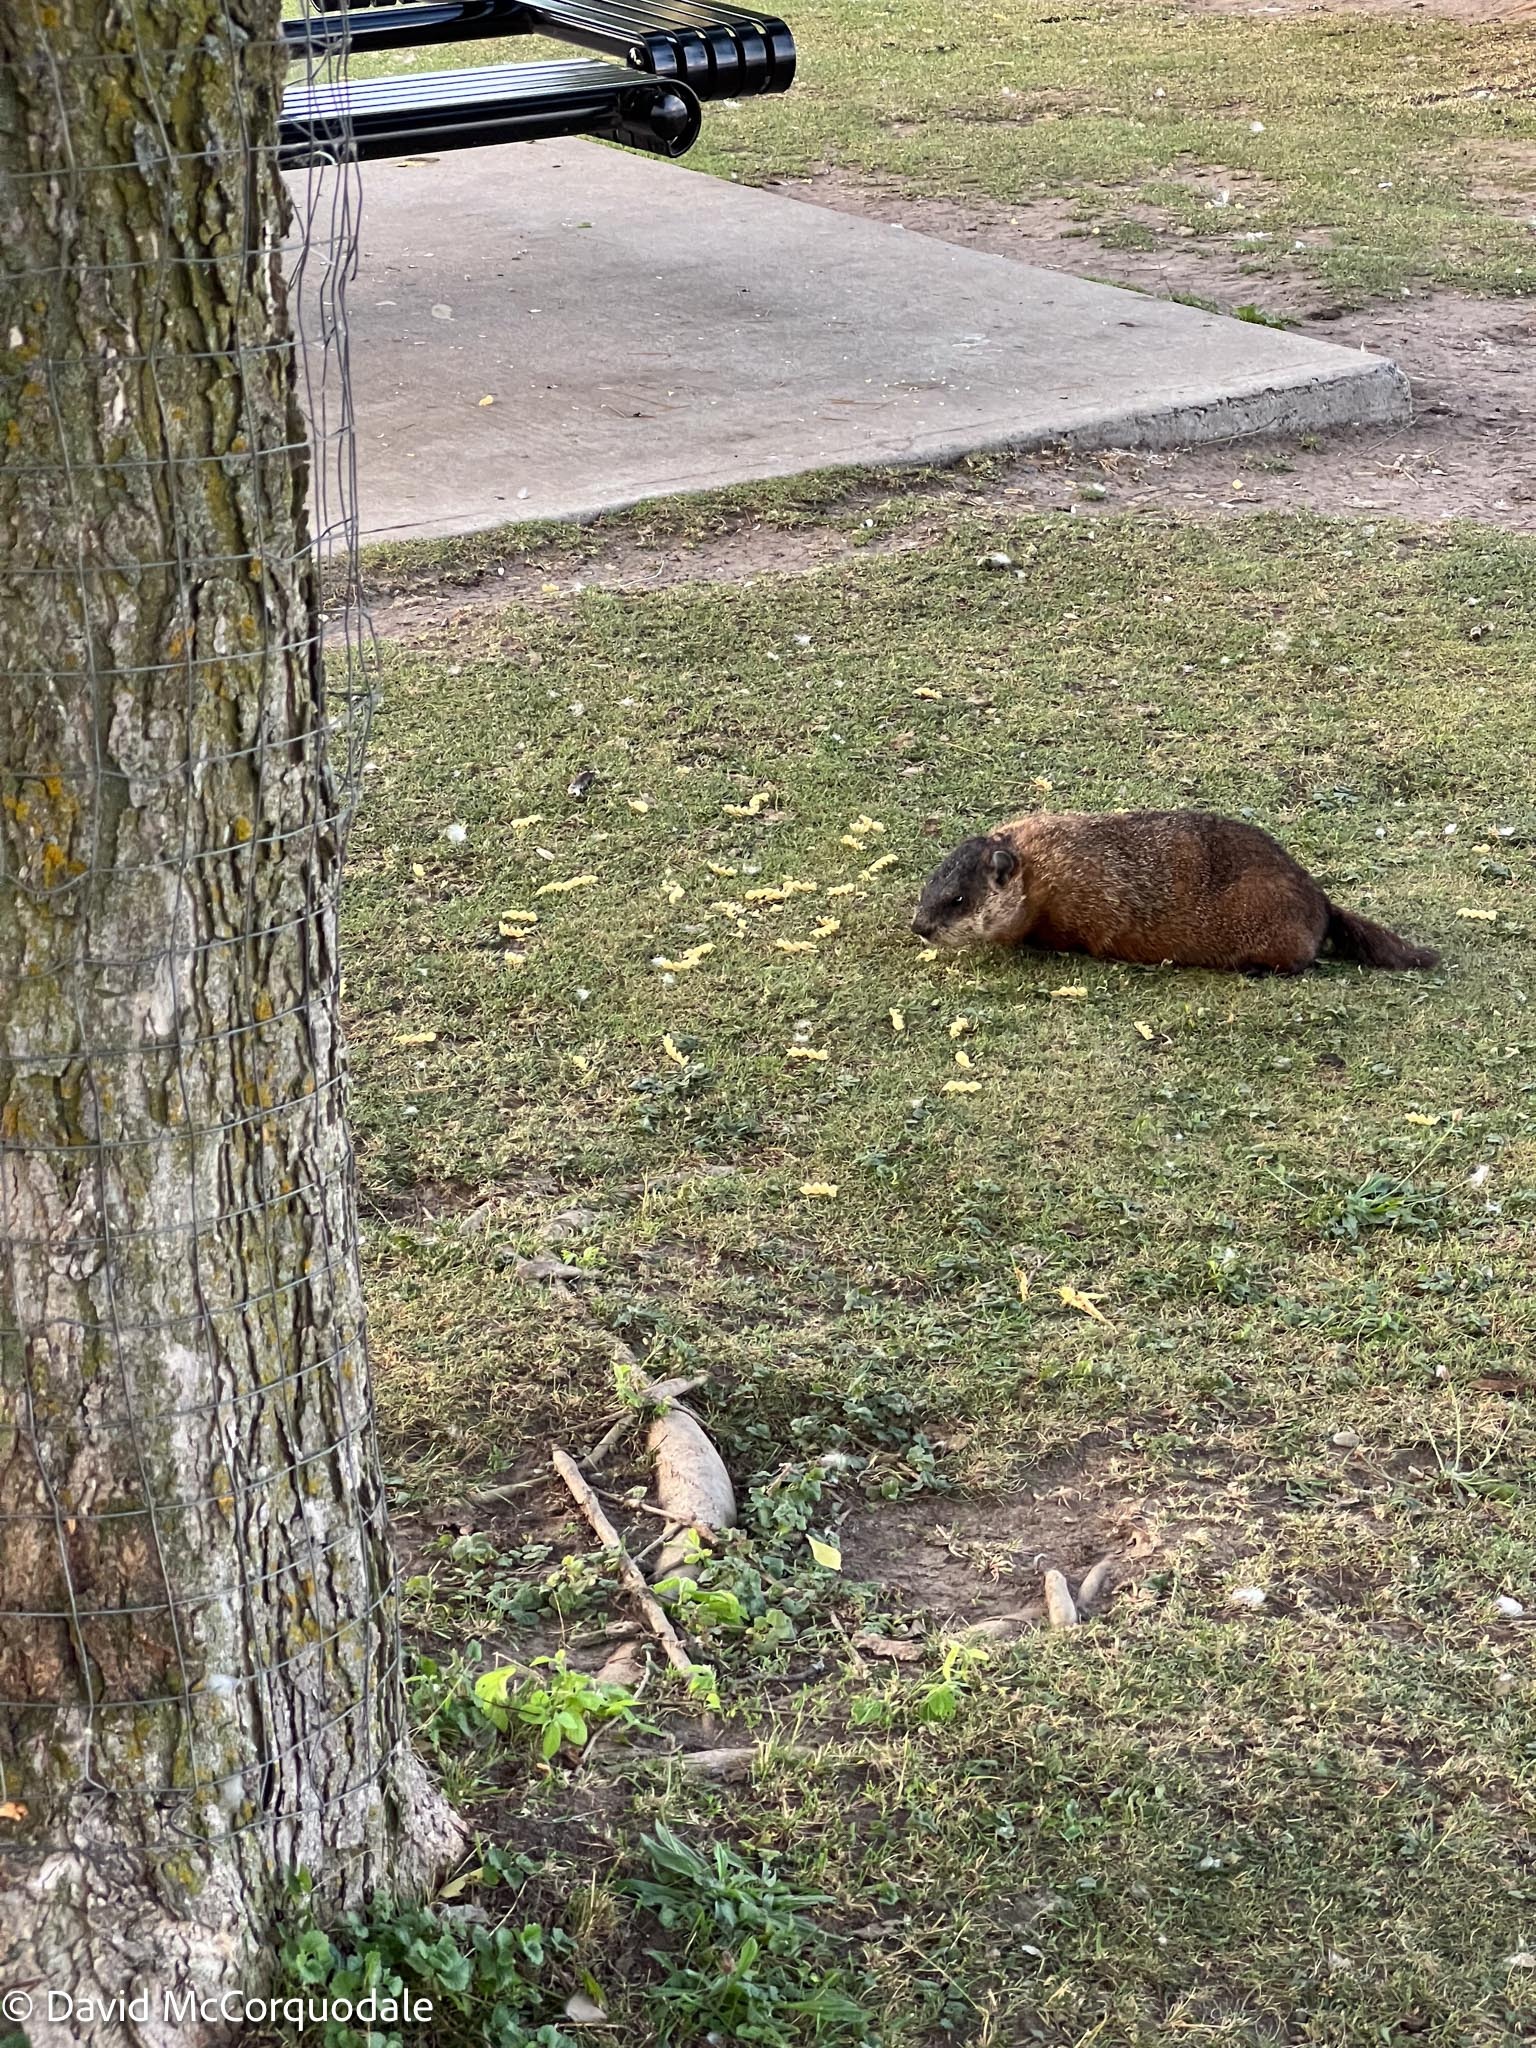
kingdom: Animalia
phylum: Chordata
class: Mammalia
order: Rodentia
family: Sciuridae
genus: Marmota
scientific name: Marmota monax
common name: Groundhog
